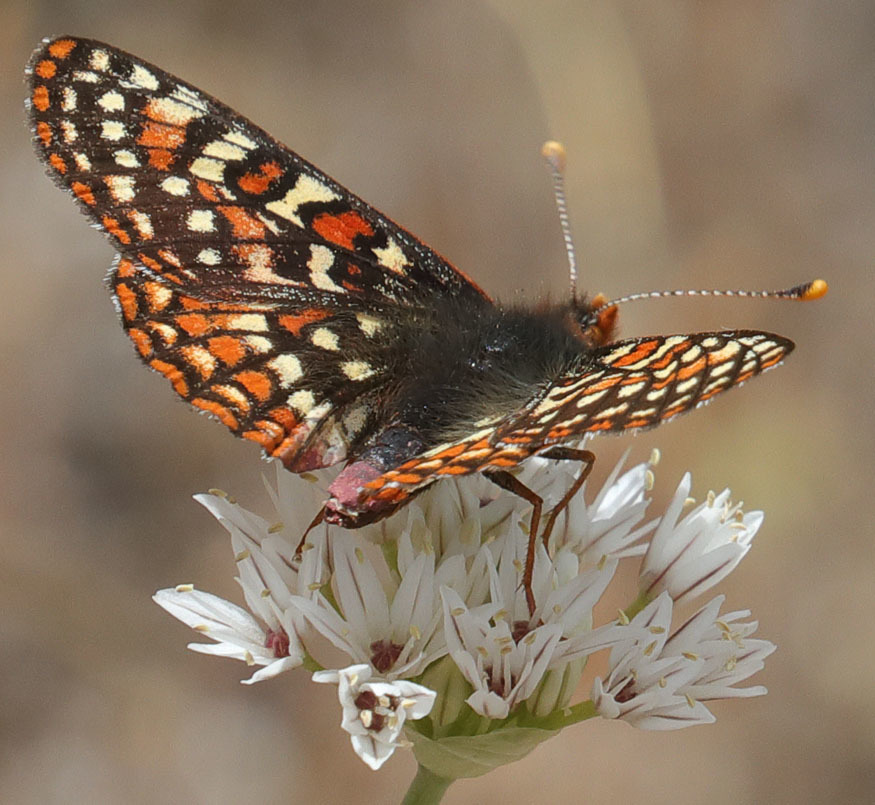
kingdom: Animalia
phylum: Arthropoda
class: Insecta
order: Lepidoptera
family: Nymphalidae
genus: Occidryas
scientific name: Occidryas editha
